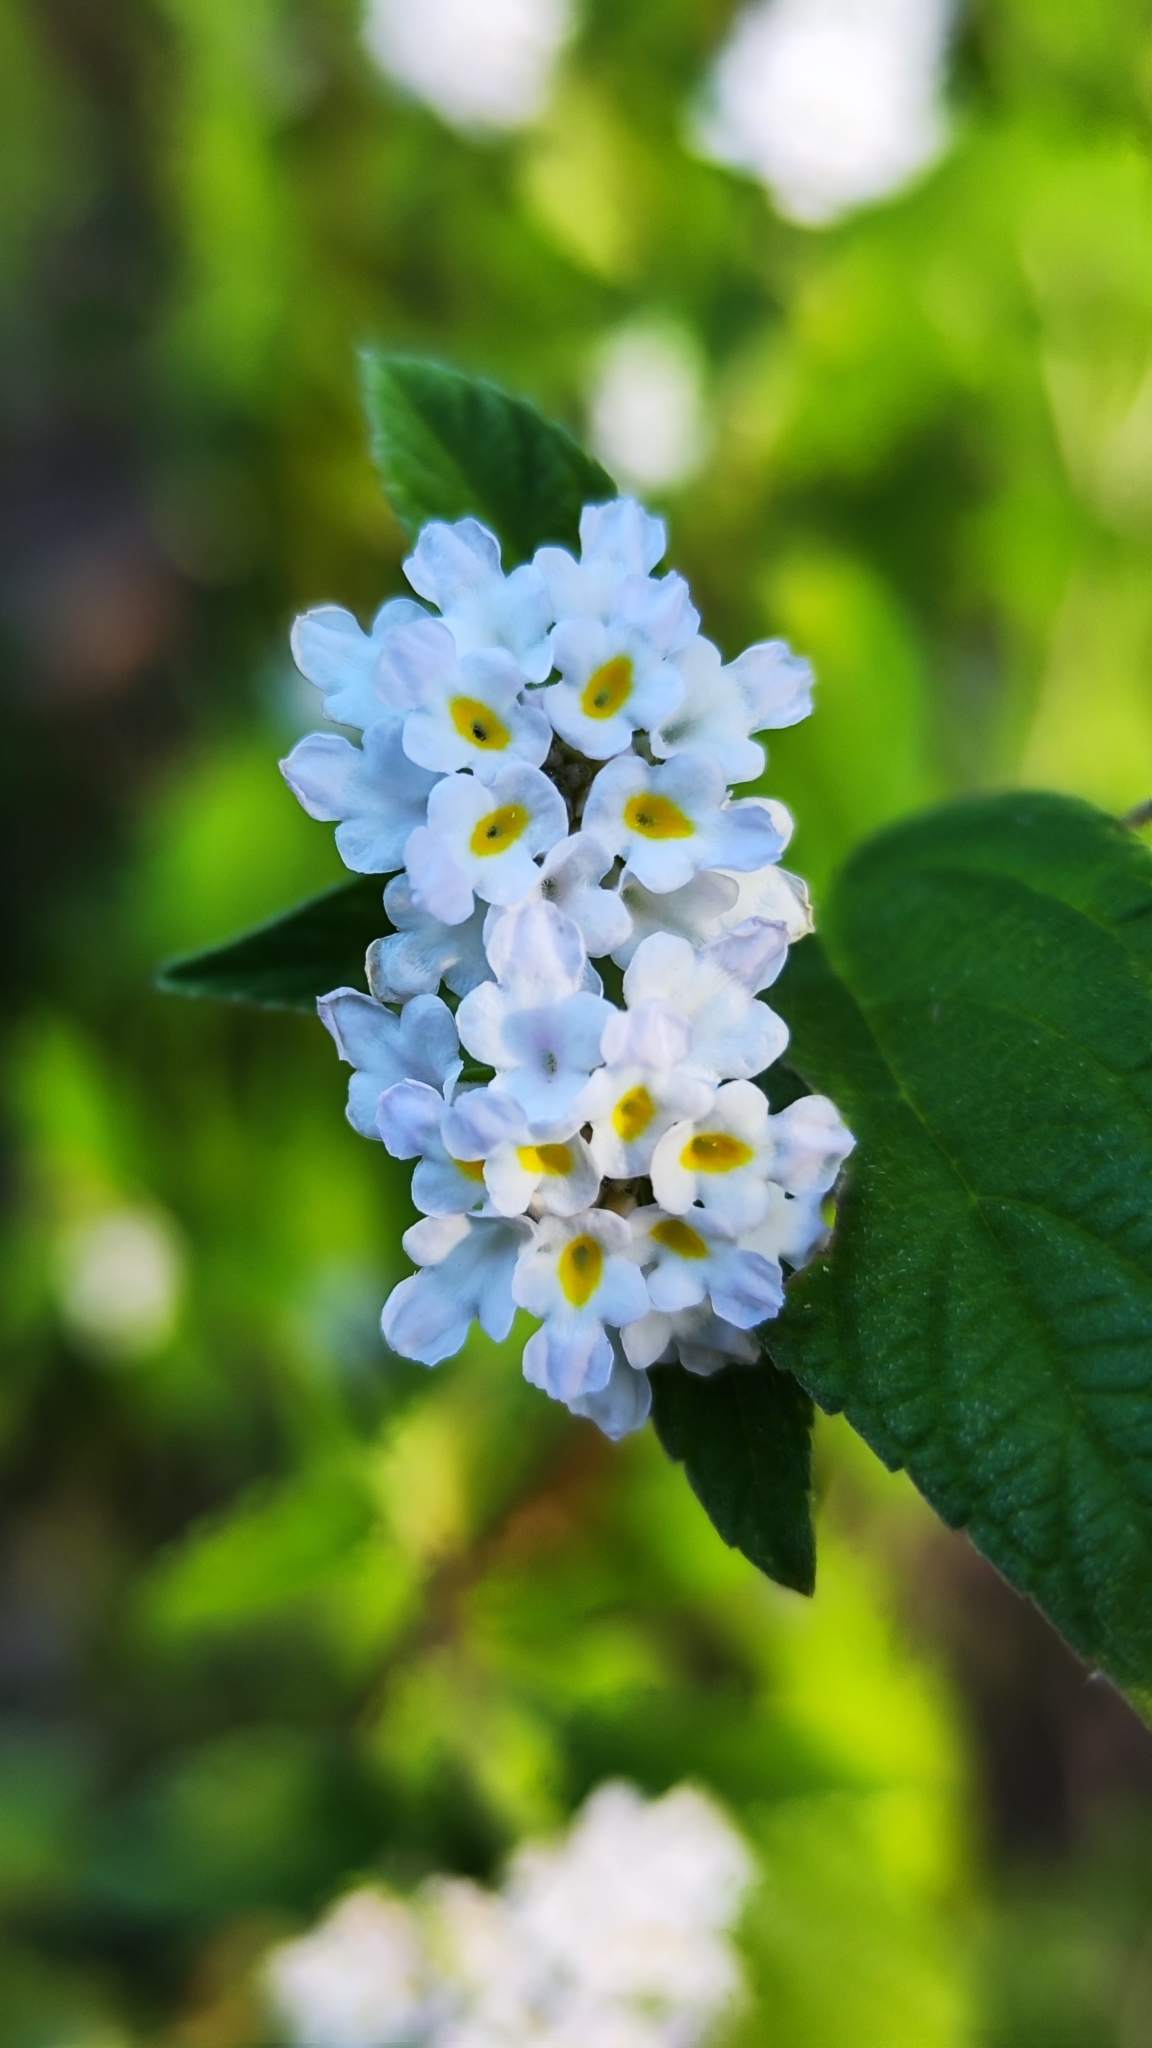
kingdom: Plantae
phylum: Tracheophyta
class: Magnoliopsida
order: Lamiales
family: Verbenaceae
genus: Lantana
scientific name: Lantana canescens
